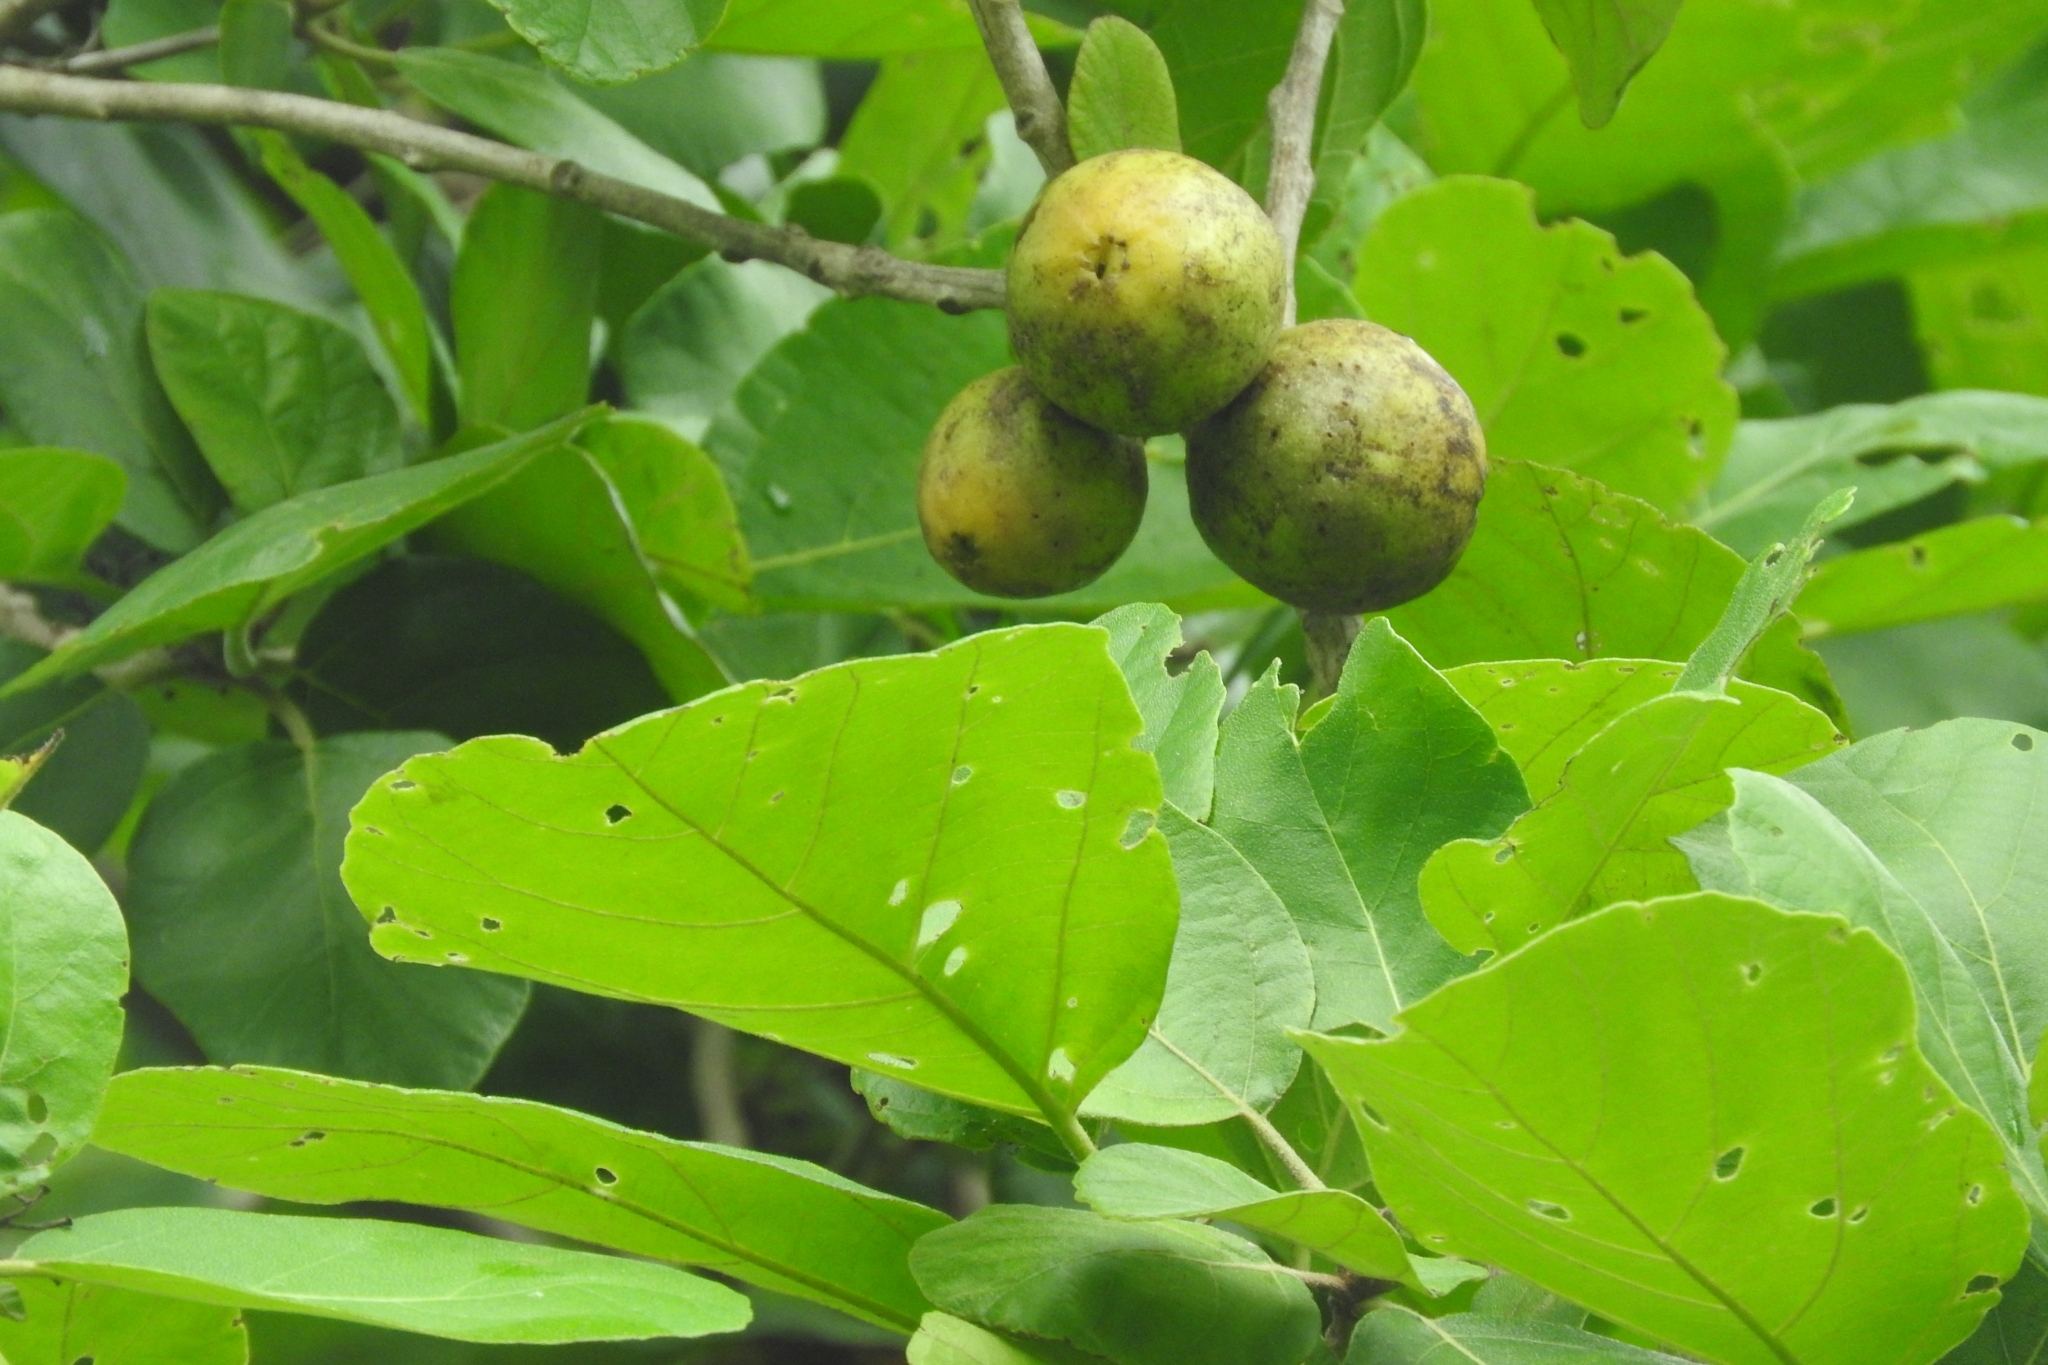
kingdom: Plantae
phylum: Tracheophyta
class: Magnoliopsida
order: Boraginales
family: Cordiaceae
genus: Cordia
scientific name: Cordia dodecandra
